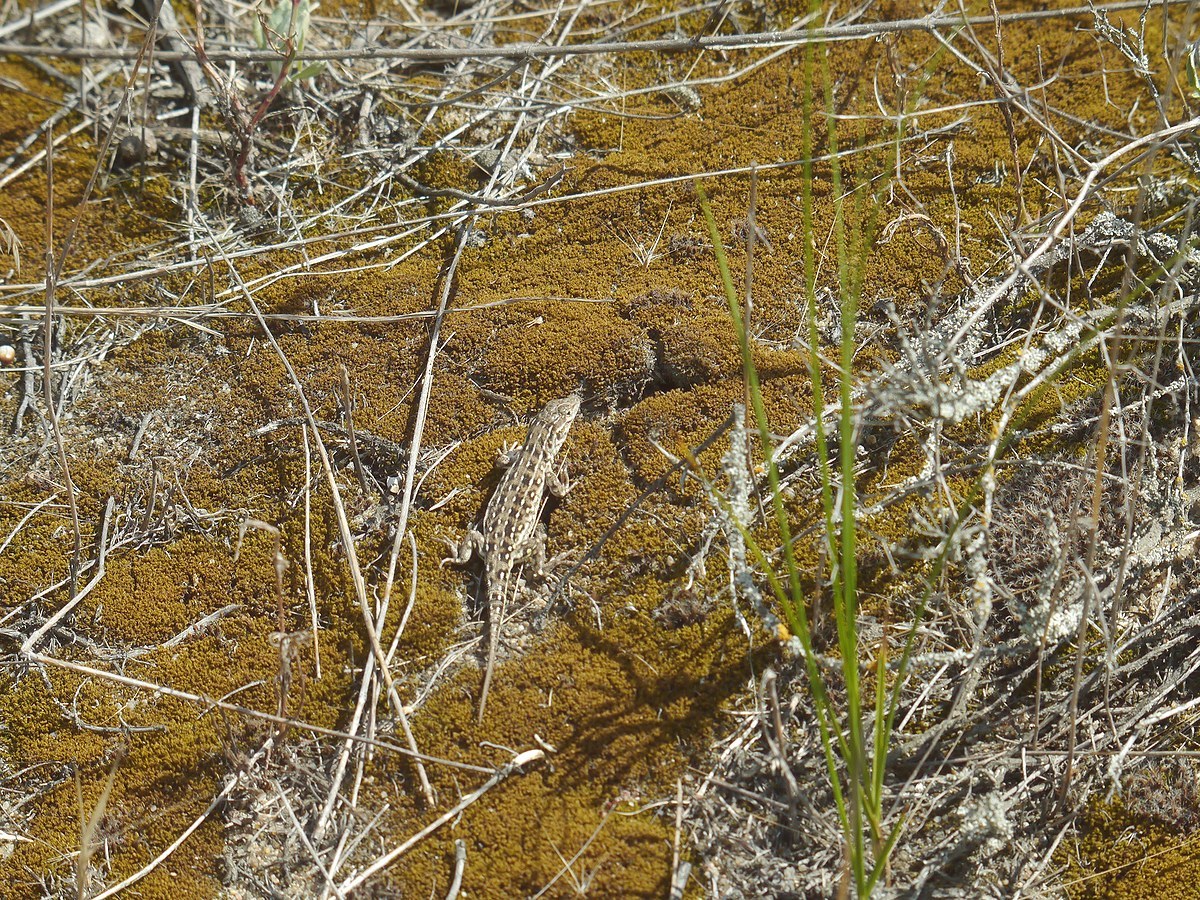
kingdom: Animalia
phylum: Chordata
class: Squamata
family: Lacertidae
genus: Eremias
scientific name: Eremias arguta
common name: Racerunner
